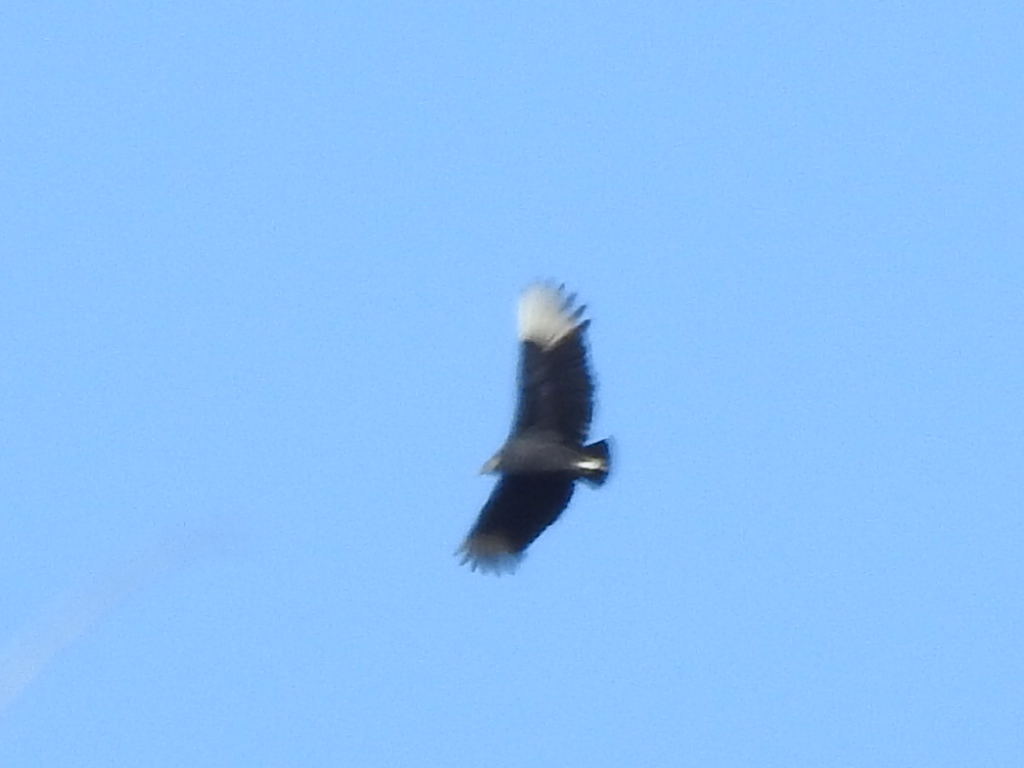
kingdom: Animalia
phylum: Chordata
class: Aves
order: Accipitriformes
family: Cathartidae
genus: Coragyps
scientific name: Coragyps atratus
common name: Black vulture
